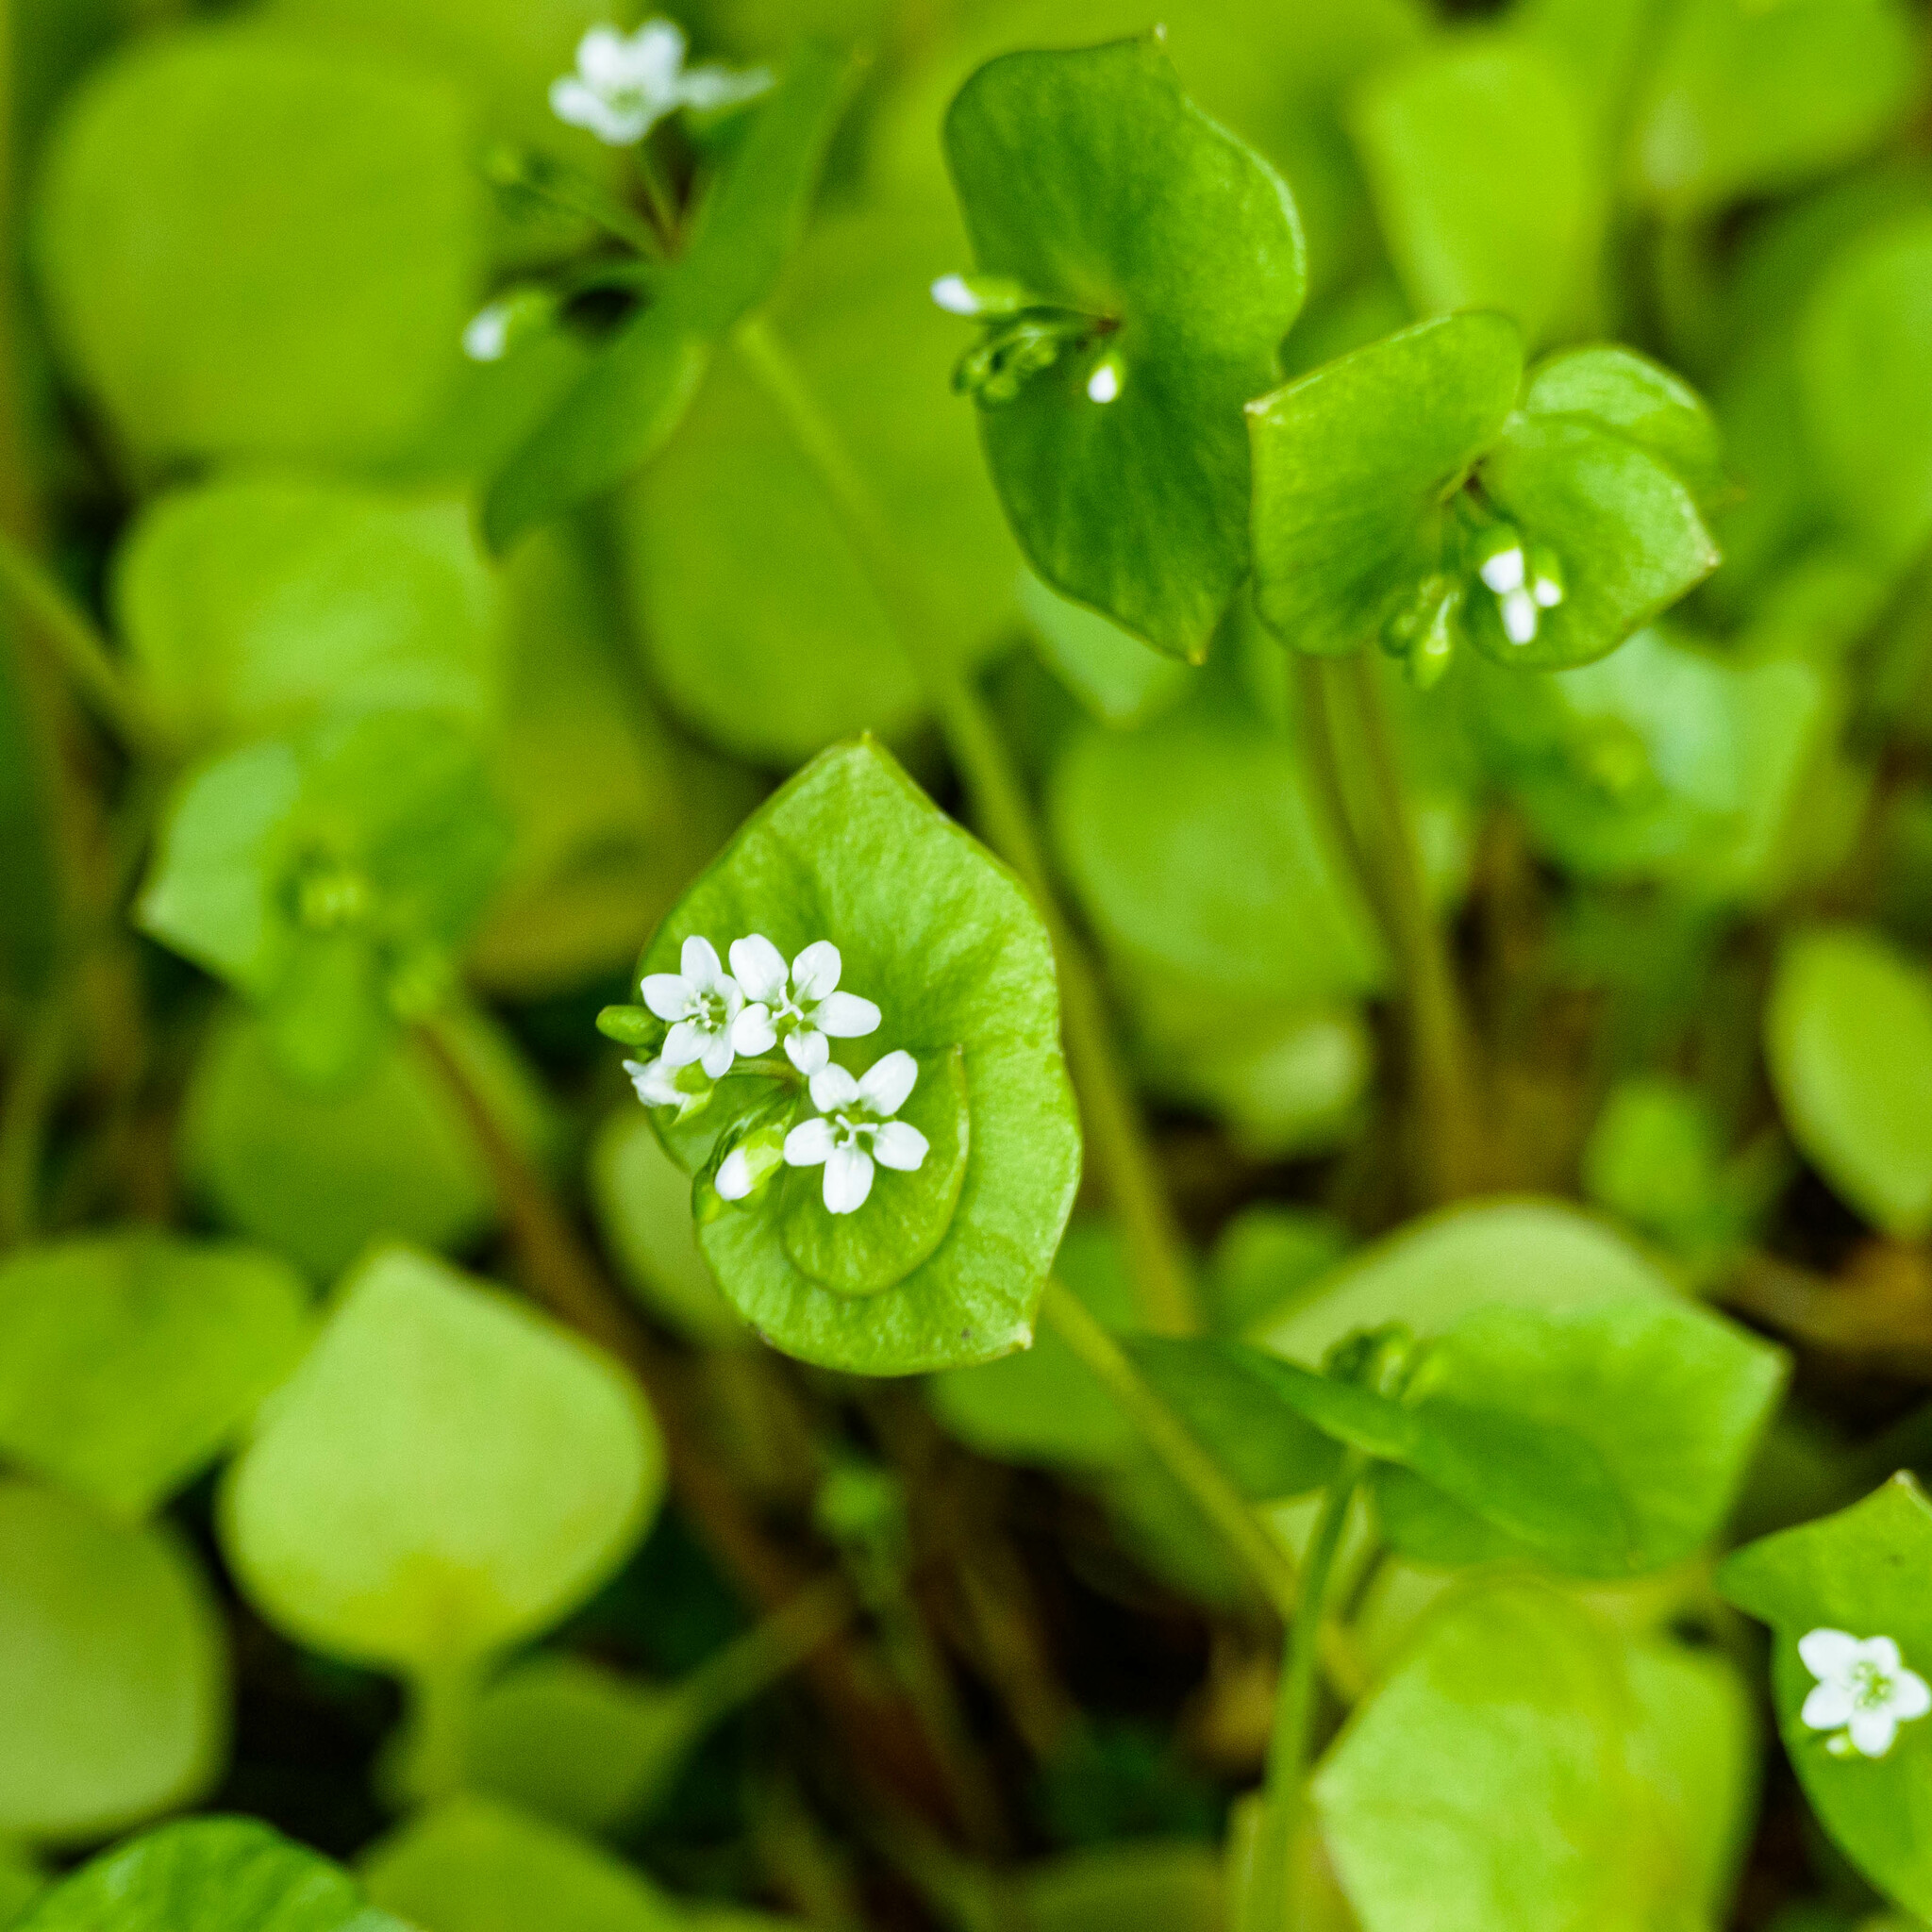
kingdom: Plantae
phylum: Tracheophyta
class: Magnoliopsida
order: Caryophyllales
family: Montiaceae
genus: Claytonia
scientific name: Claytonia perfoliata
